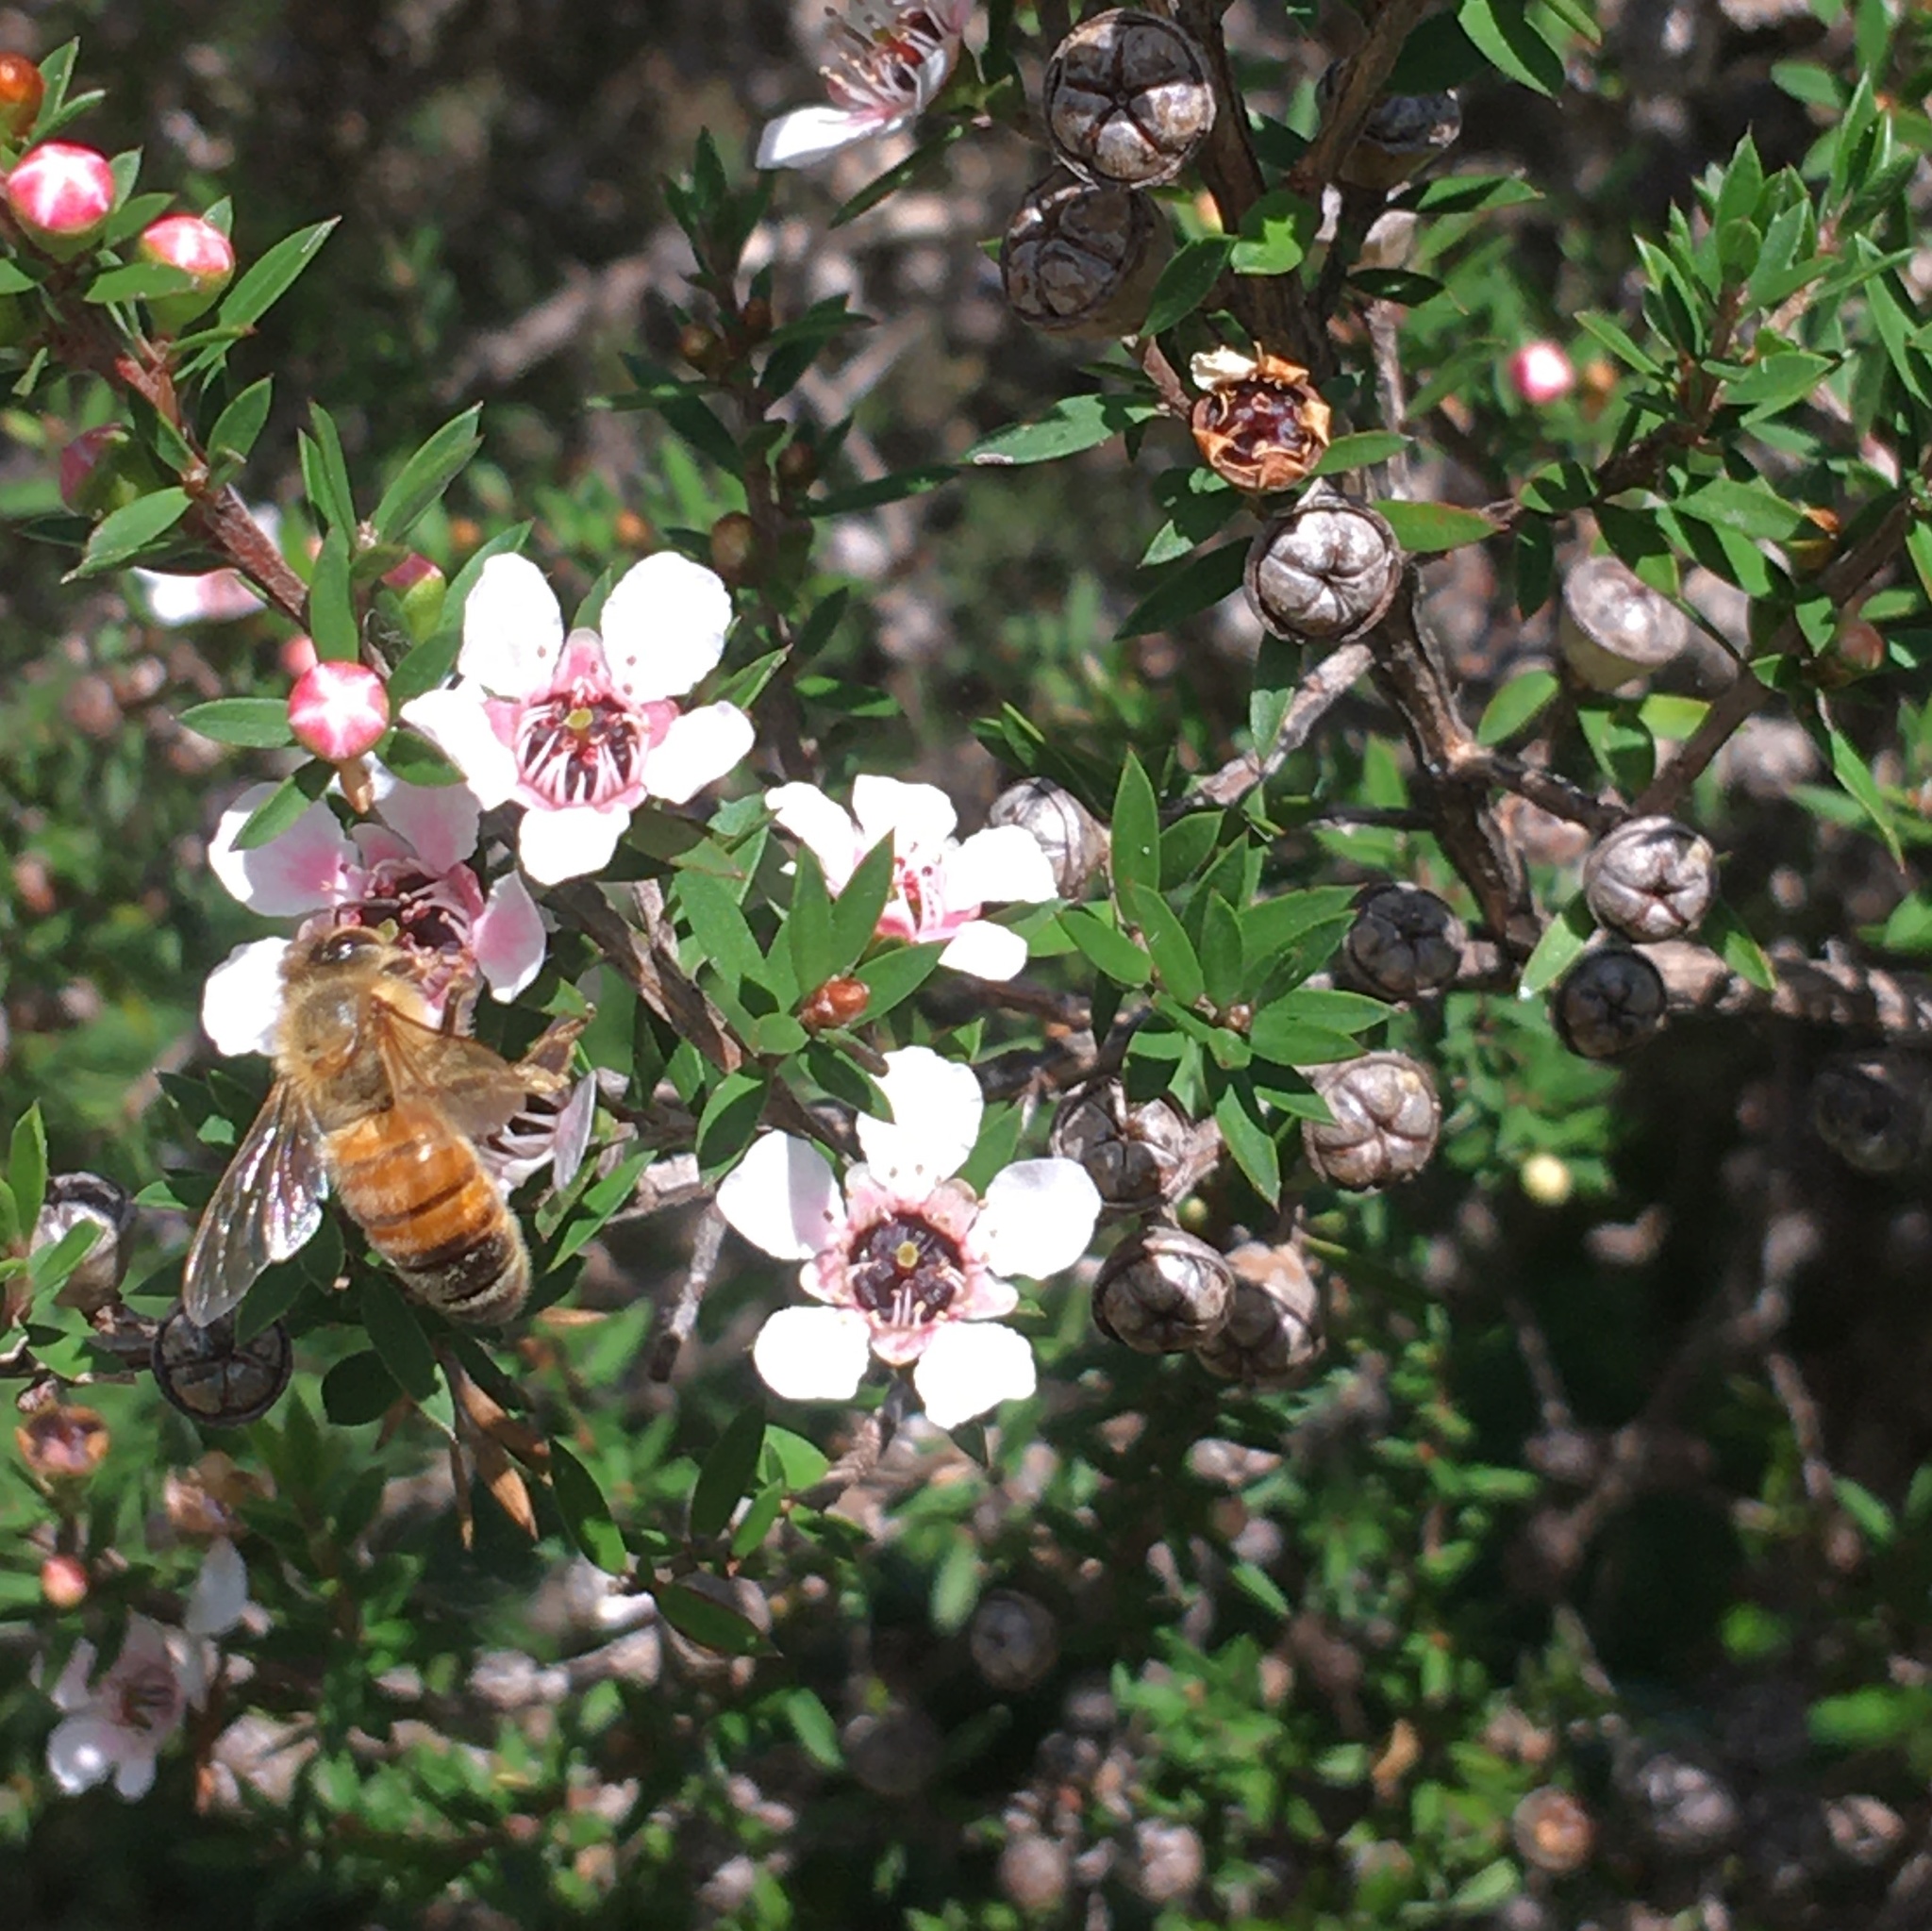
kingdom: Animalia
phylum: Arthropoda
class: Insecta
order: Hymenoptera
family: Apidae
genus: Apis
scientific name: Apis mellifera
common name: Honey bee
